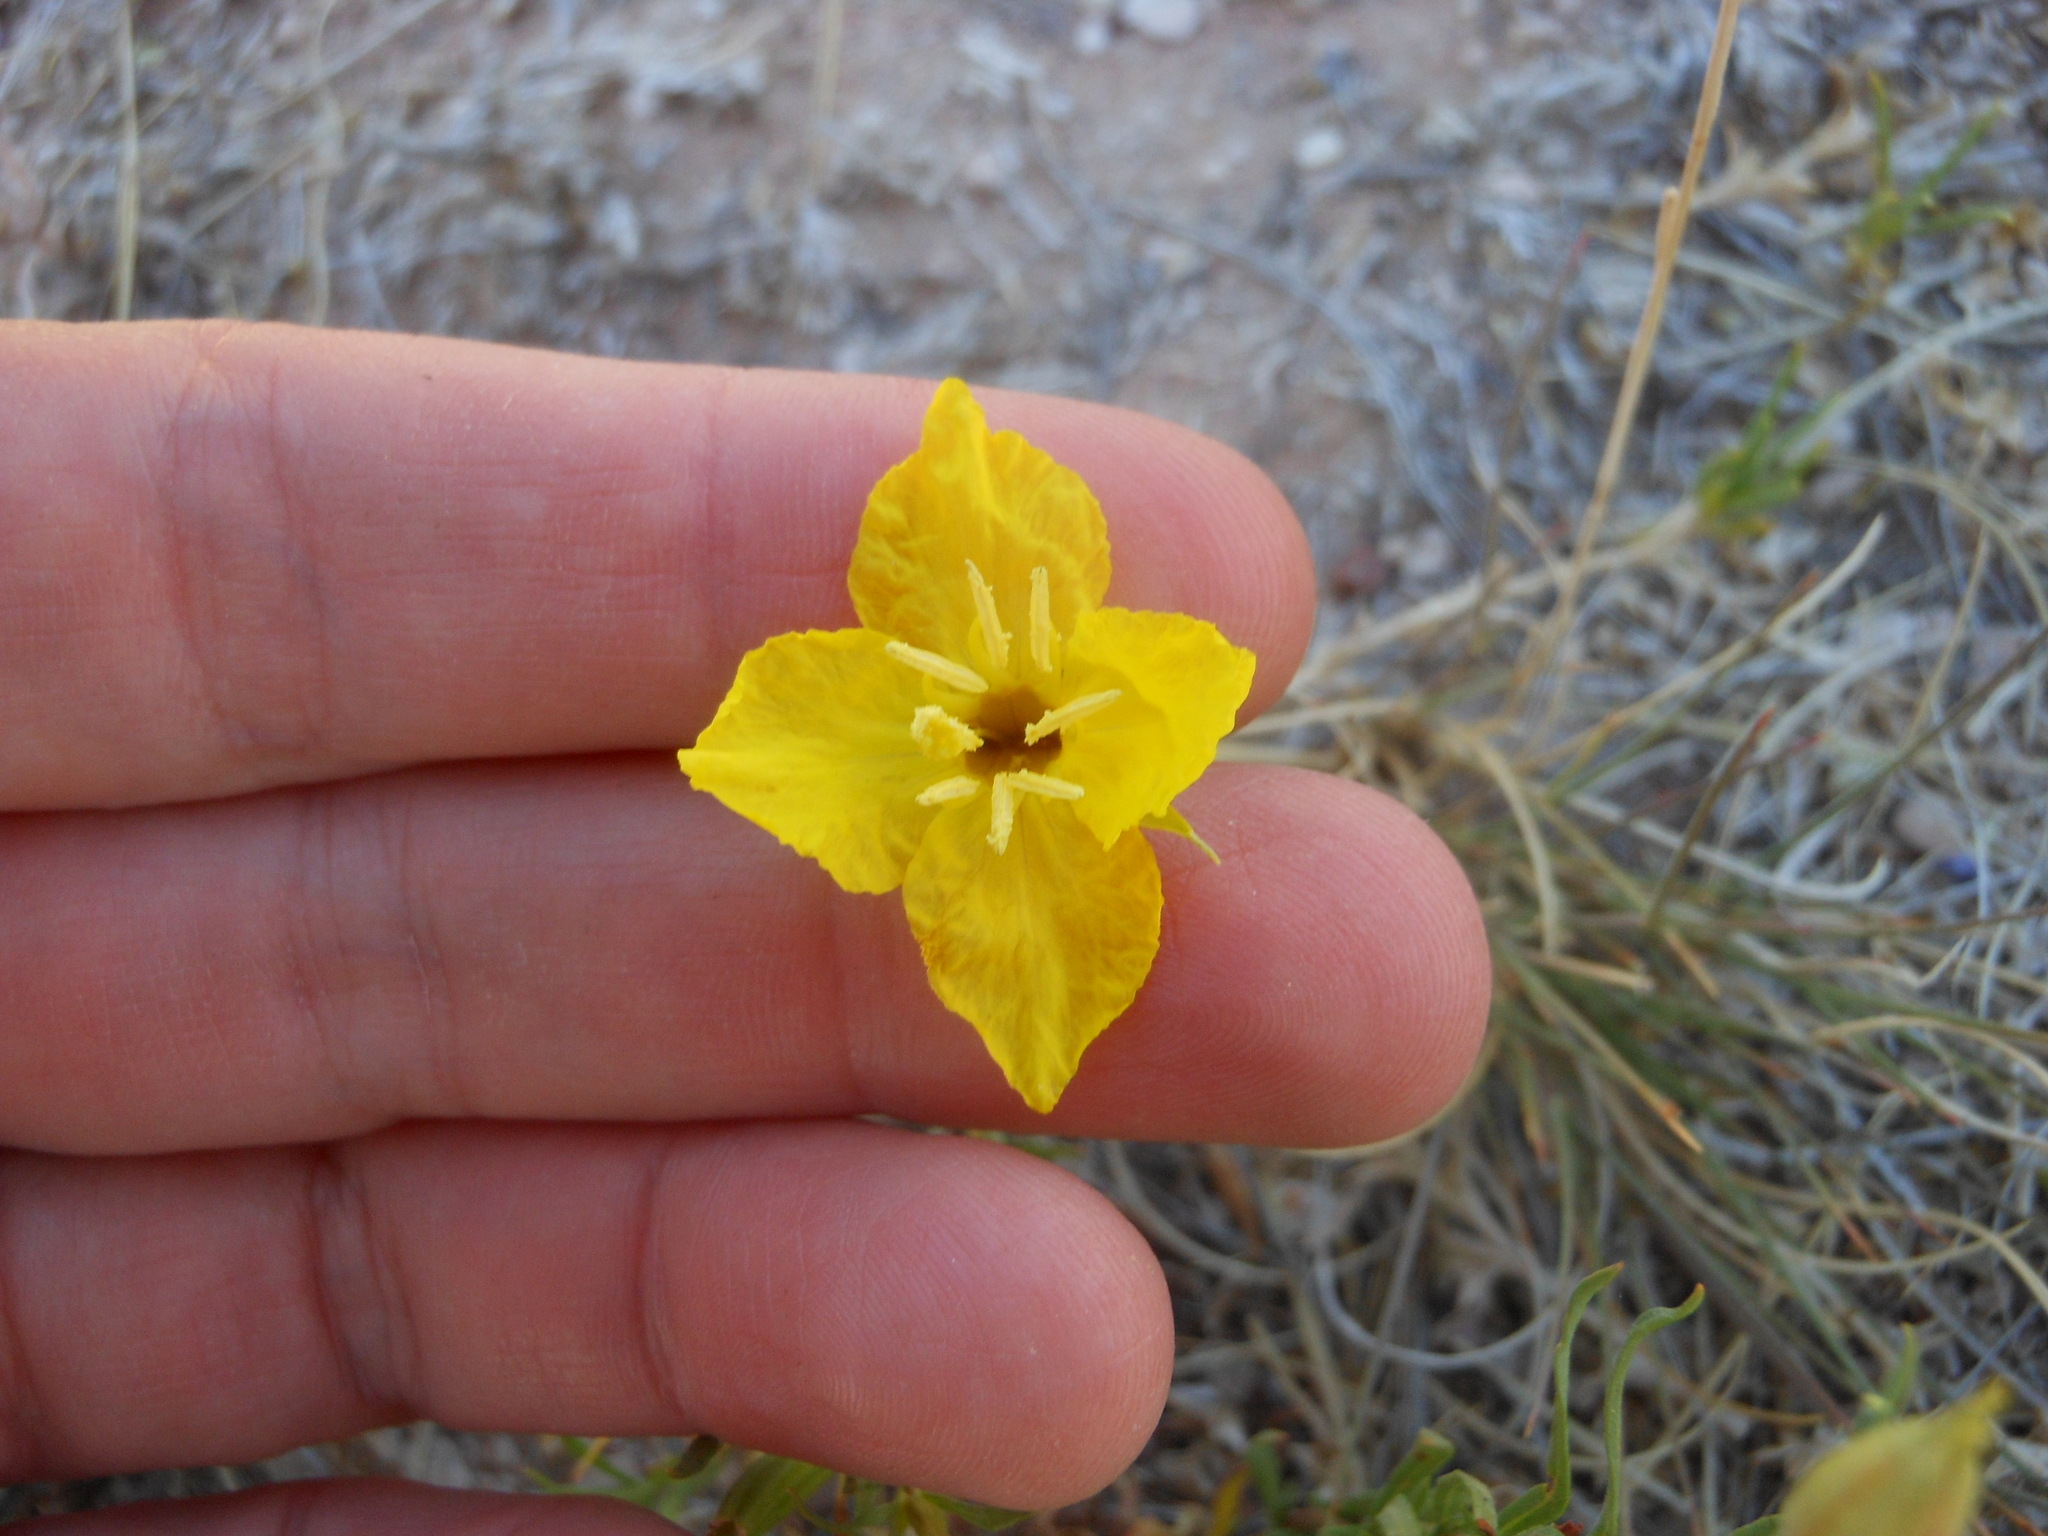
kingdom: Plantae
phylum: Tracheophyta
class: Magnoliopsida
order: Myrtales
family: Onagraceae
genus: Oenothera
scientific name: Oenothera hartwegii
